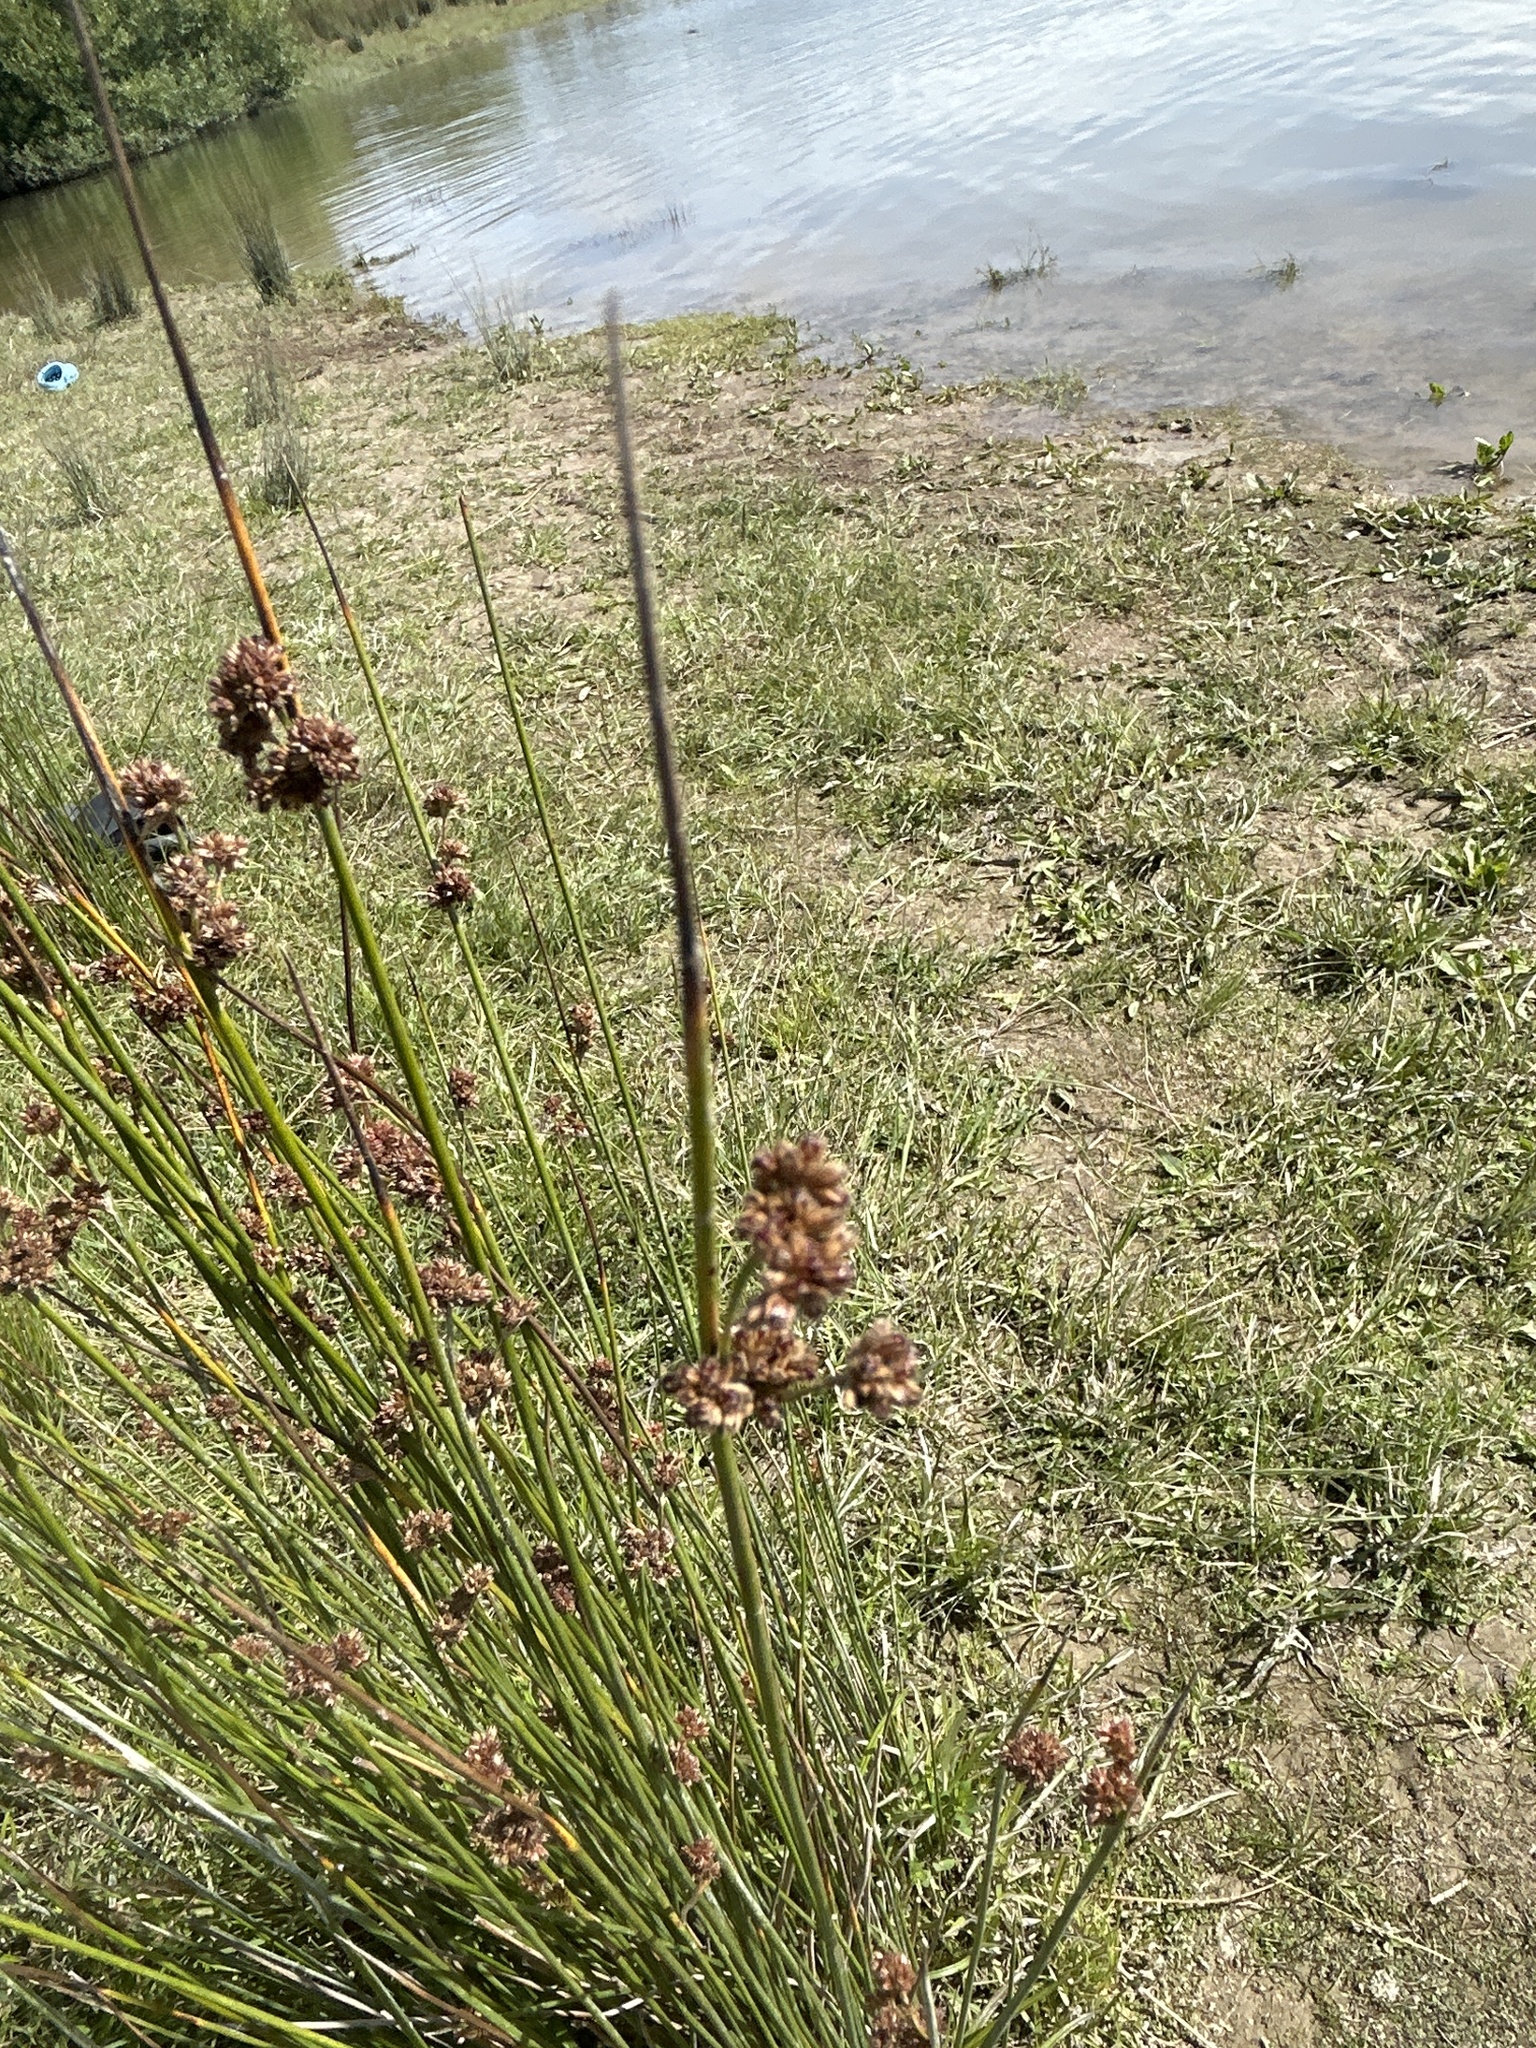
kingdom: Plantae
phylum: Tracheophyta
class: Liliopsida
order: Poales
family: Juncaceae
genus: Juncus
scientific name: Juncus edgariae
